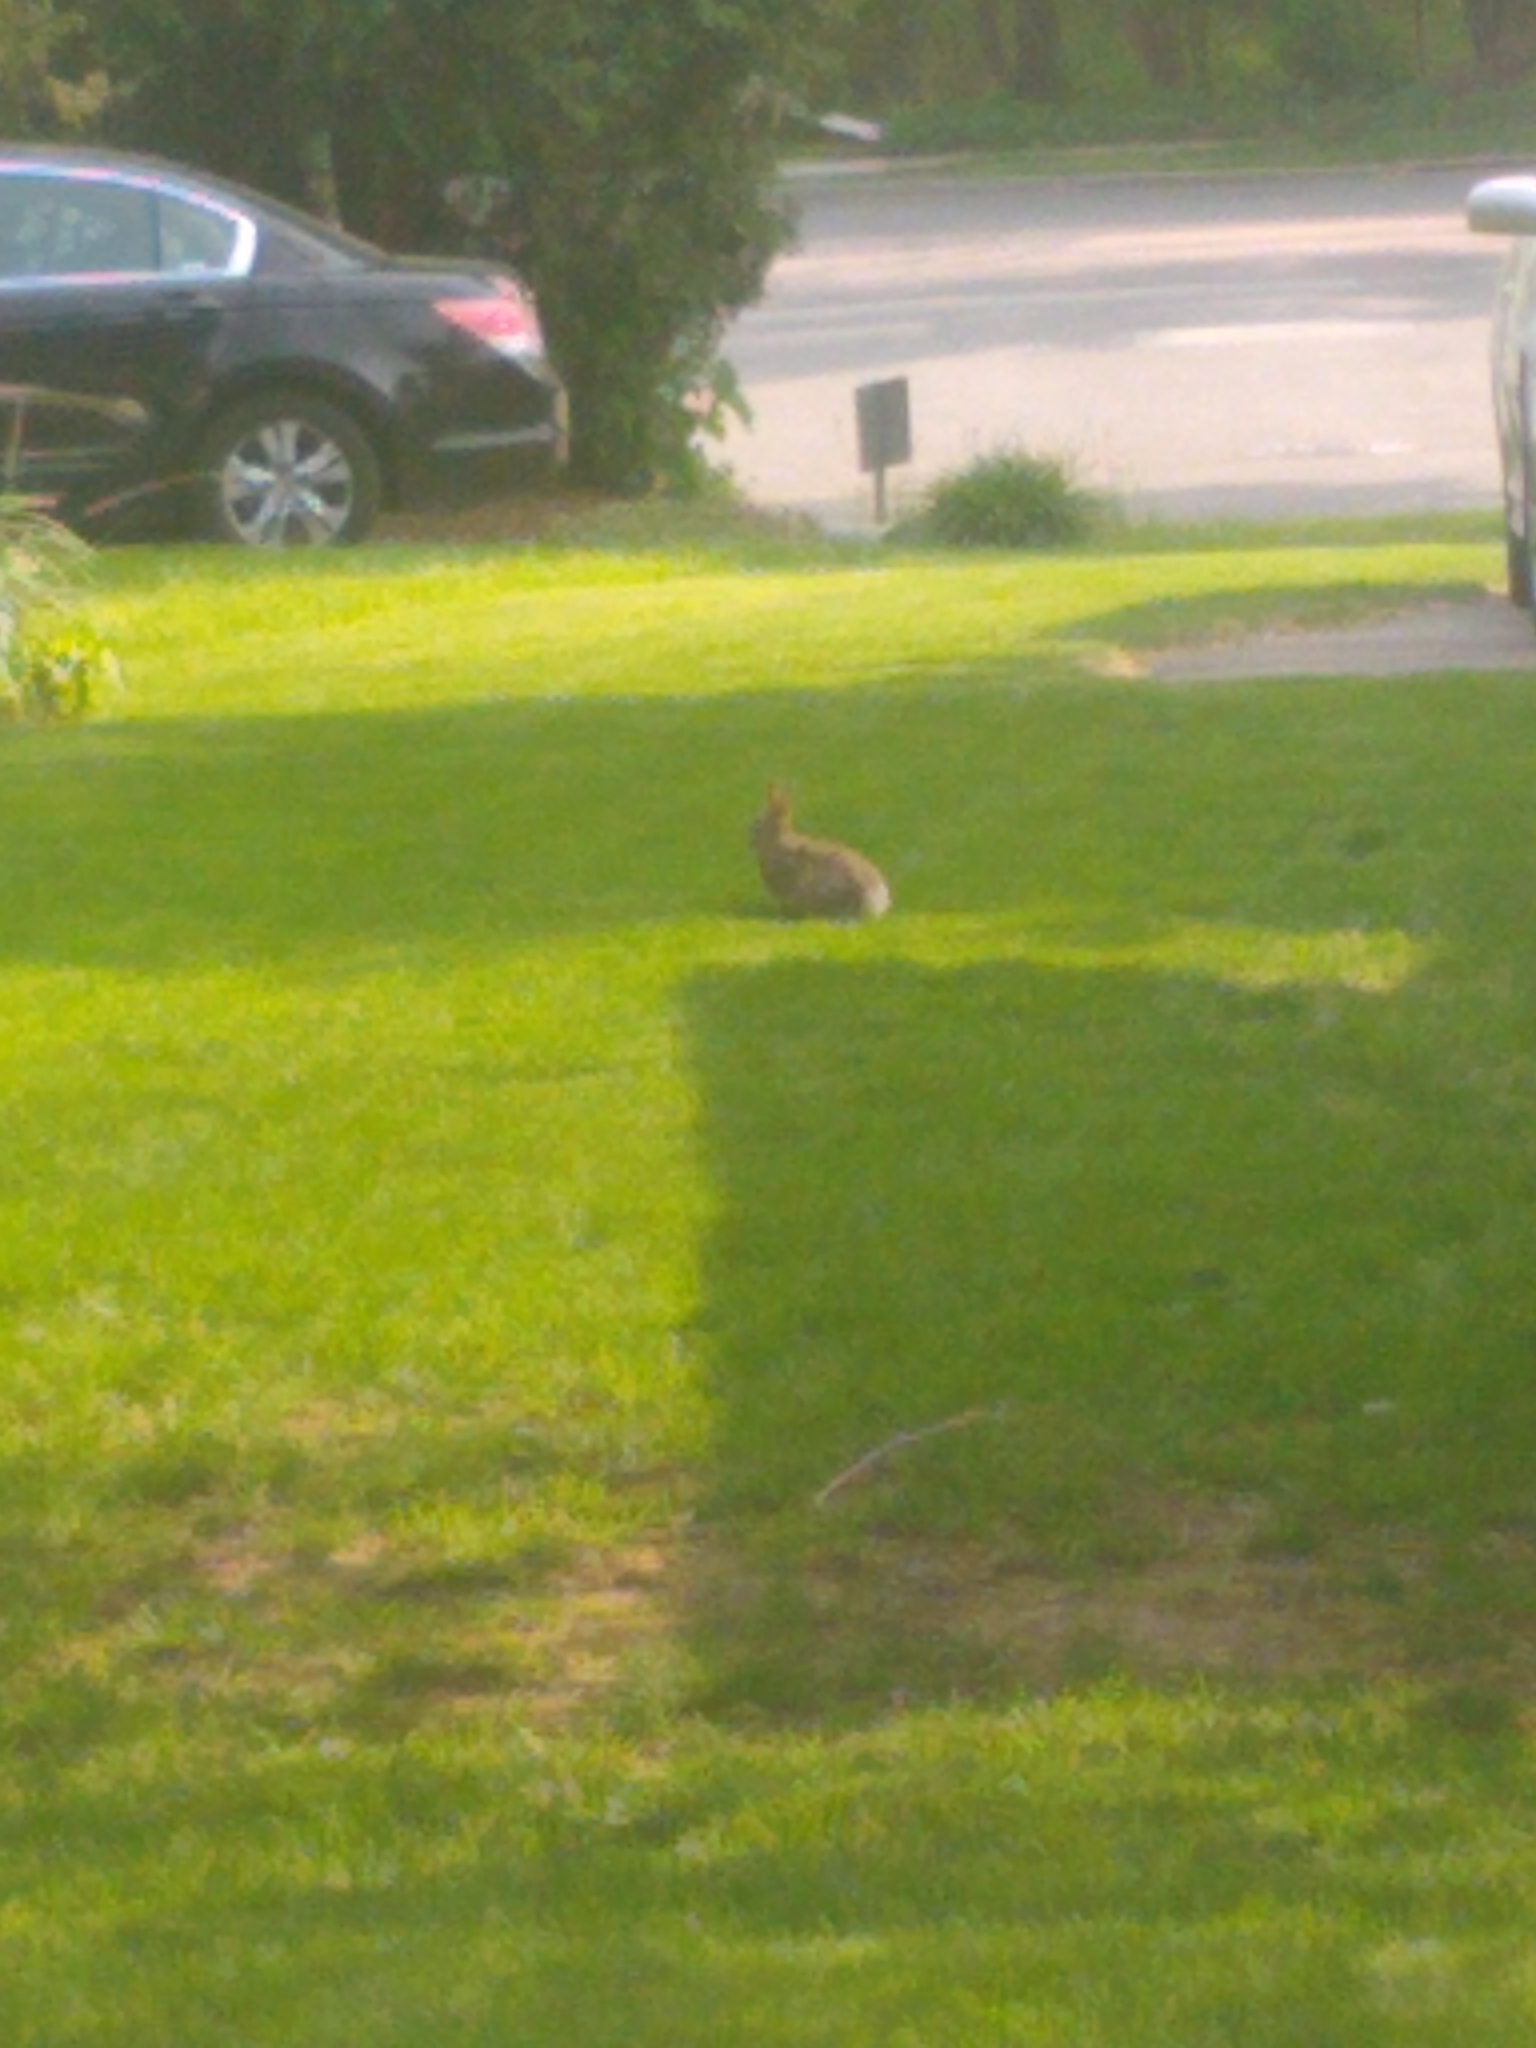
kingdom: Animalia
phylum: Chordata
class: Mammalia
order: Lagomorpha
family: Leporidae
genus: Sylvilagus
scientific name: Sylvilagus floridanus
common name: Eastern cottontail
